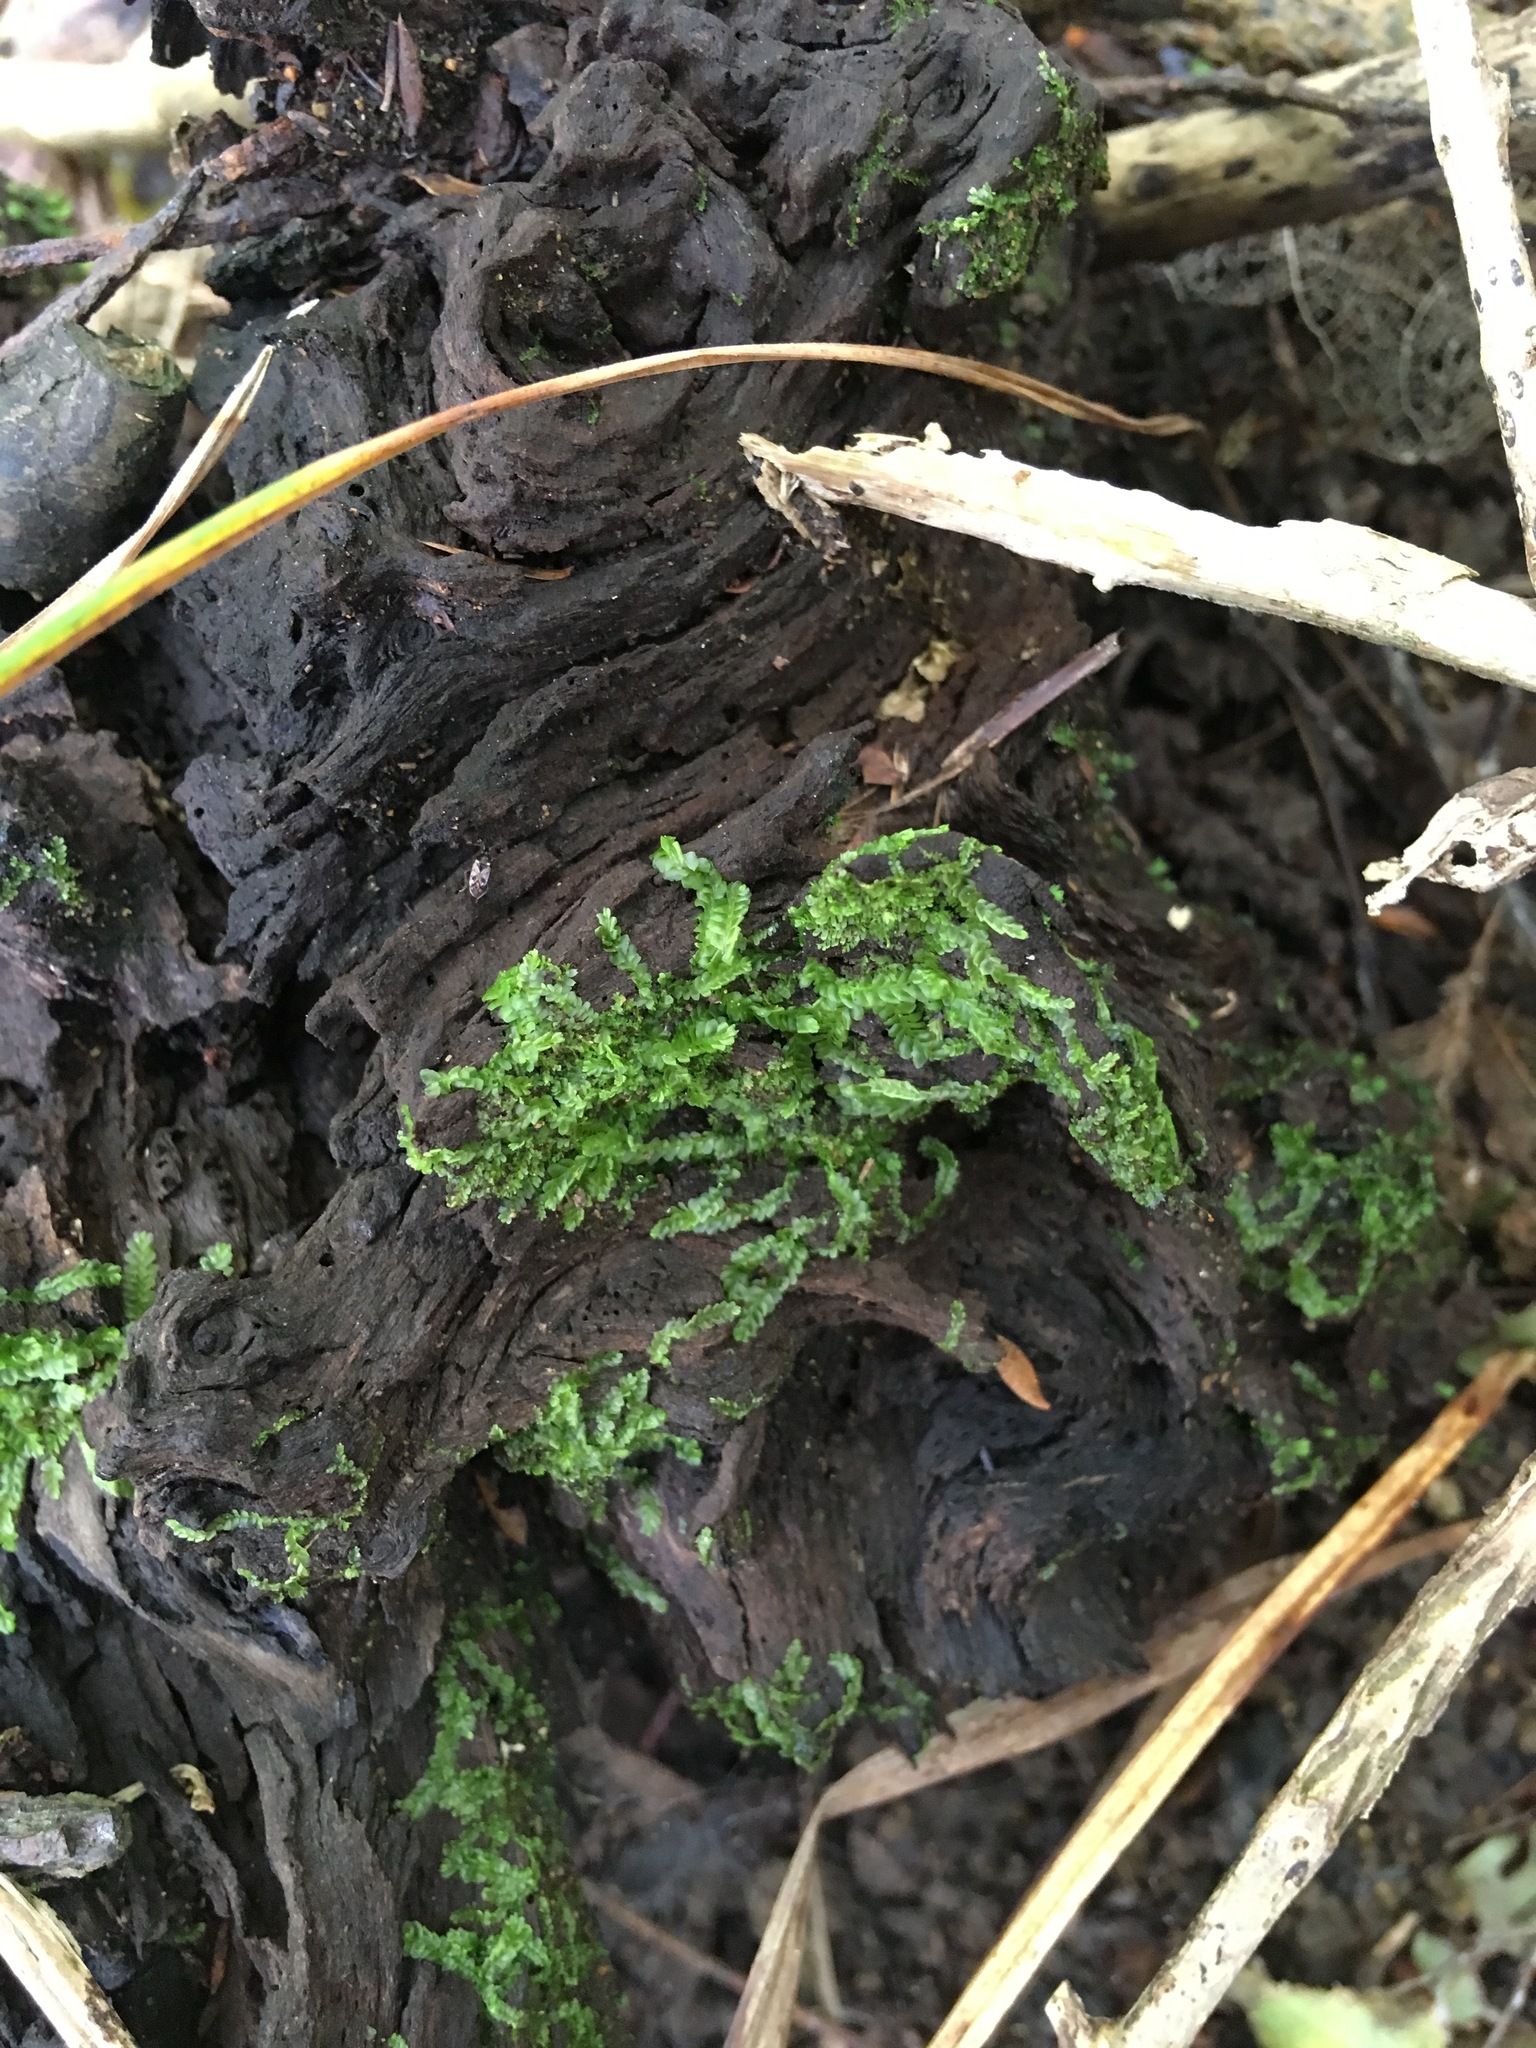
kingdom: Plantae
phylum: Marchantiophyta
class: Jungermanniopsida
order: Jungermanniales
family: Lophocoleaceae
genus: Heteroscyphus
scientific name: Heteroscyphus coalitus
